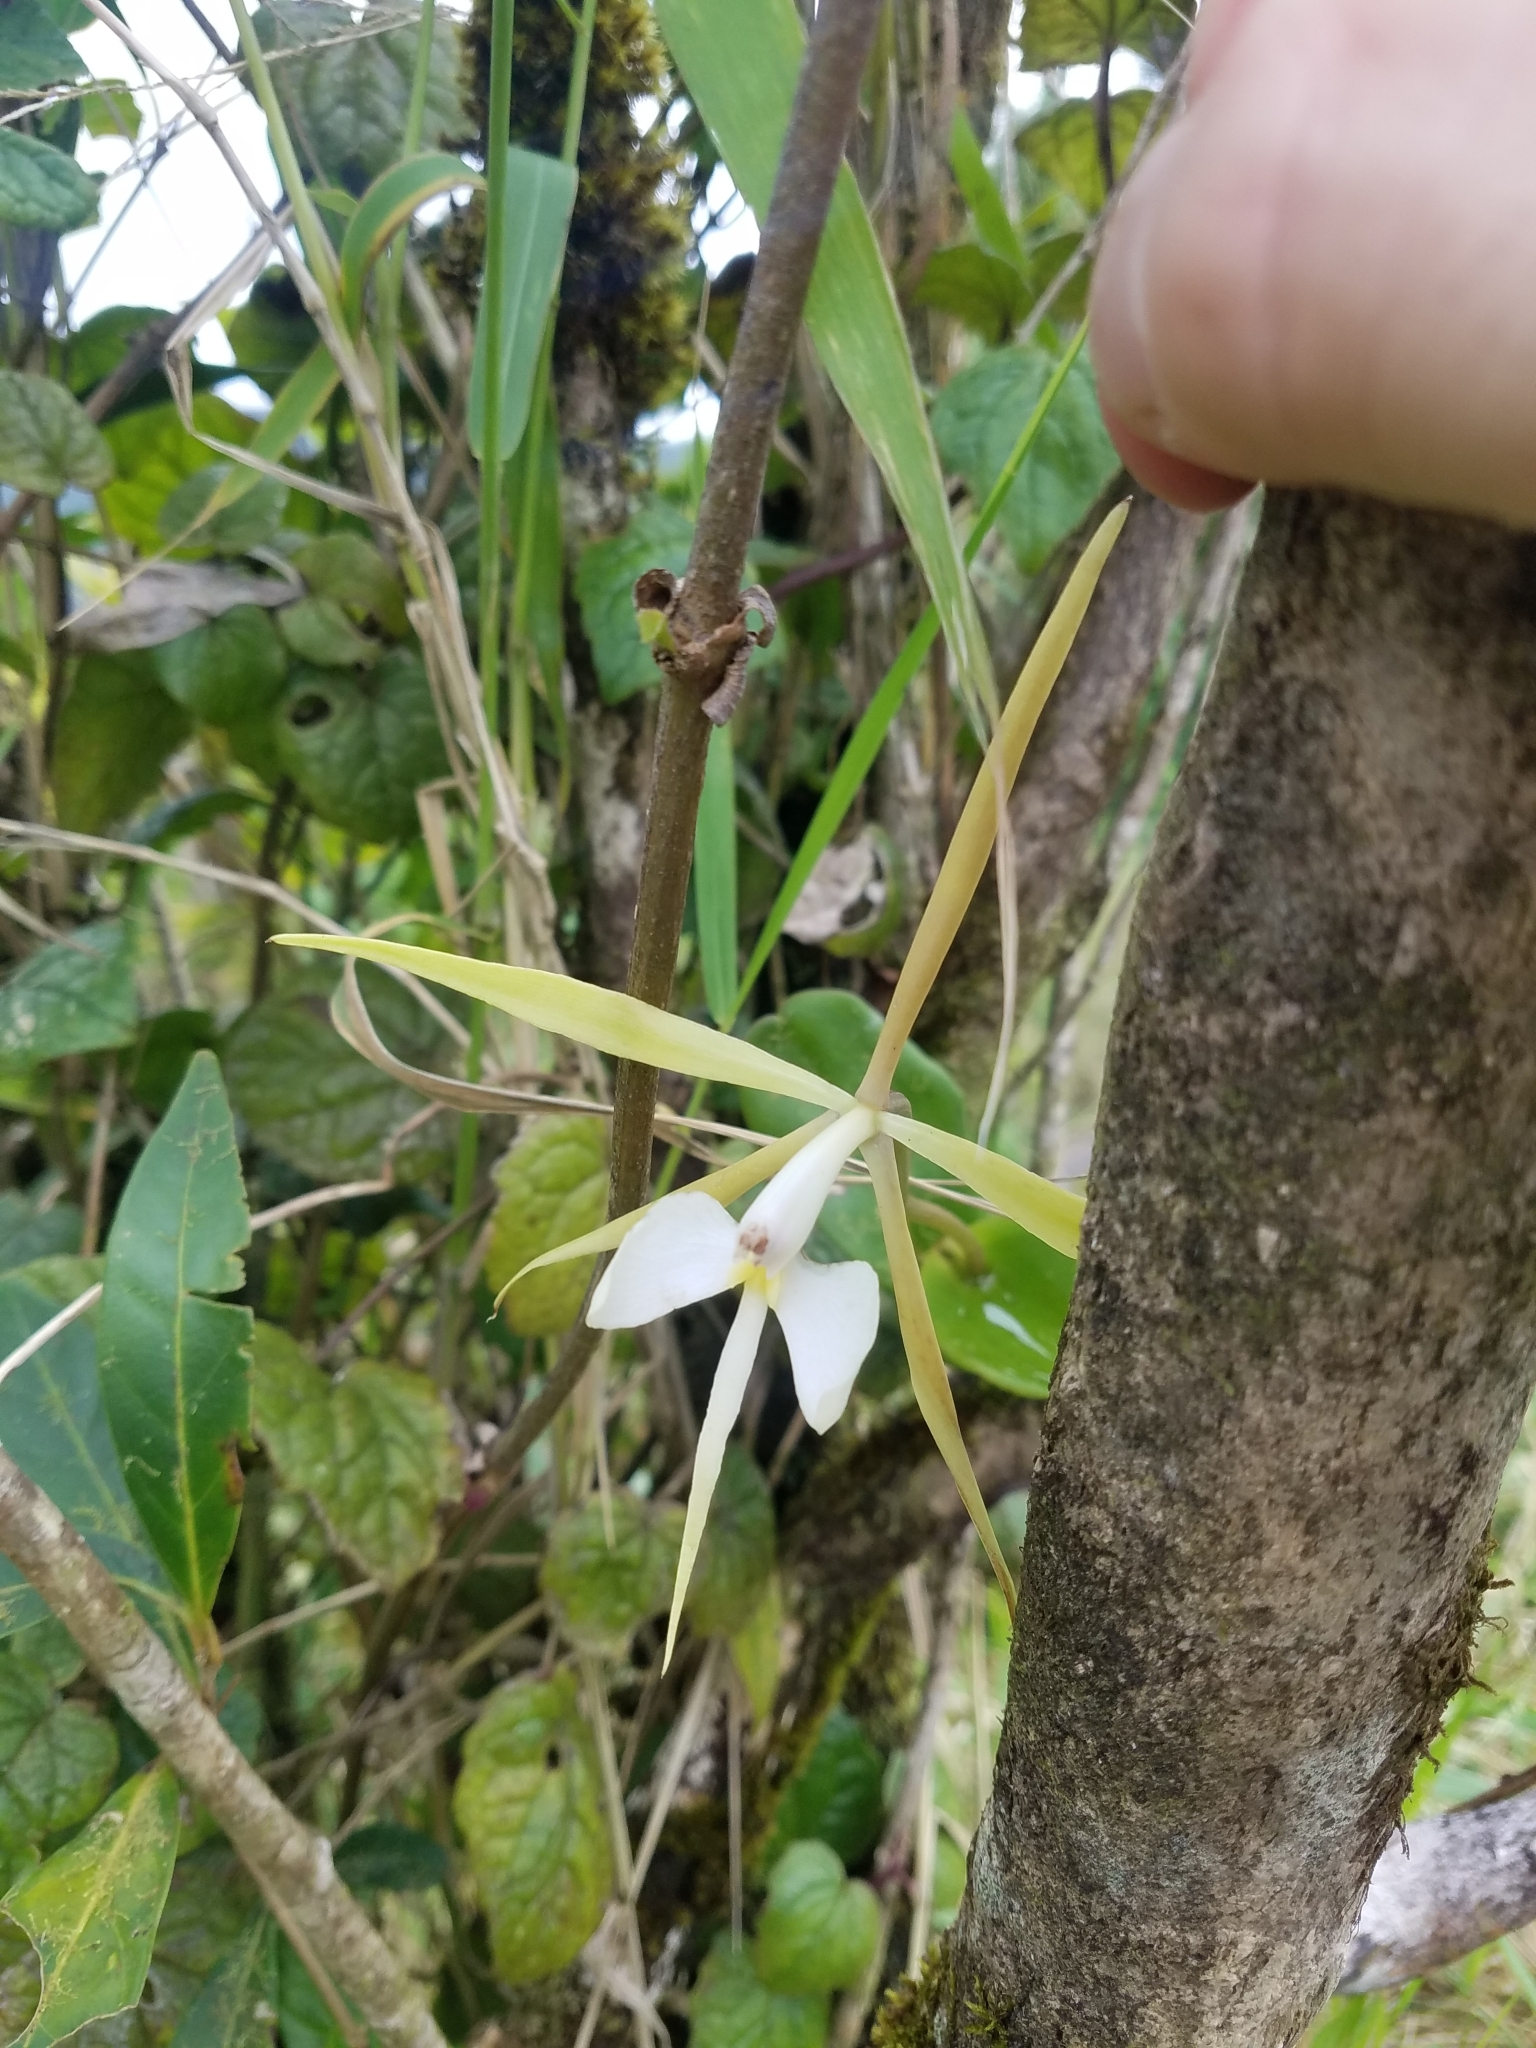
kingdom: Plantae
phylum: Tracheophyta
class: Liliopsida
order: Asparagales
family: Orchidaceae
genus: Epidendrum
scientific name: Epidendrum angustilobum
